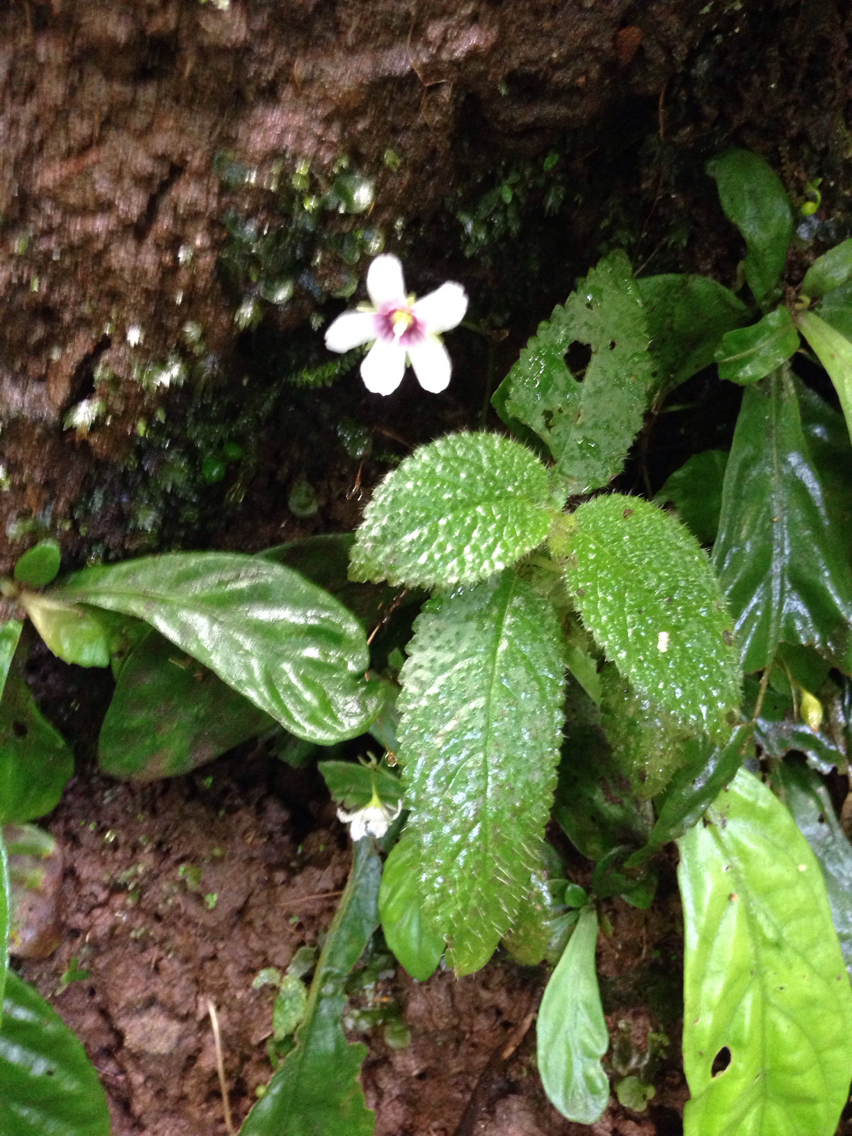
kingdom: Plantae
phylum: Tracheophyta
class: Magnoliopsida
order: Lamiales
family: Gesneriaceae
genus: Napeanthus
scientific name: Napeanthus apodemus
